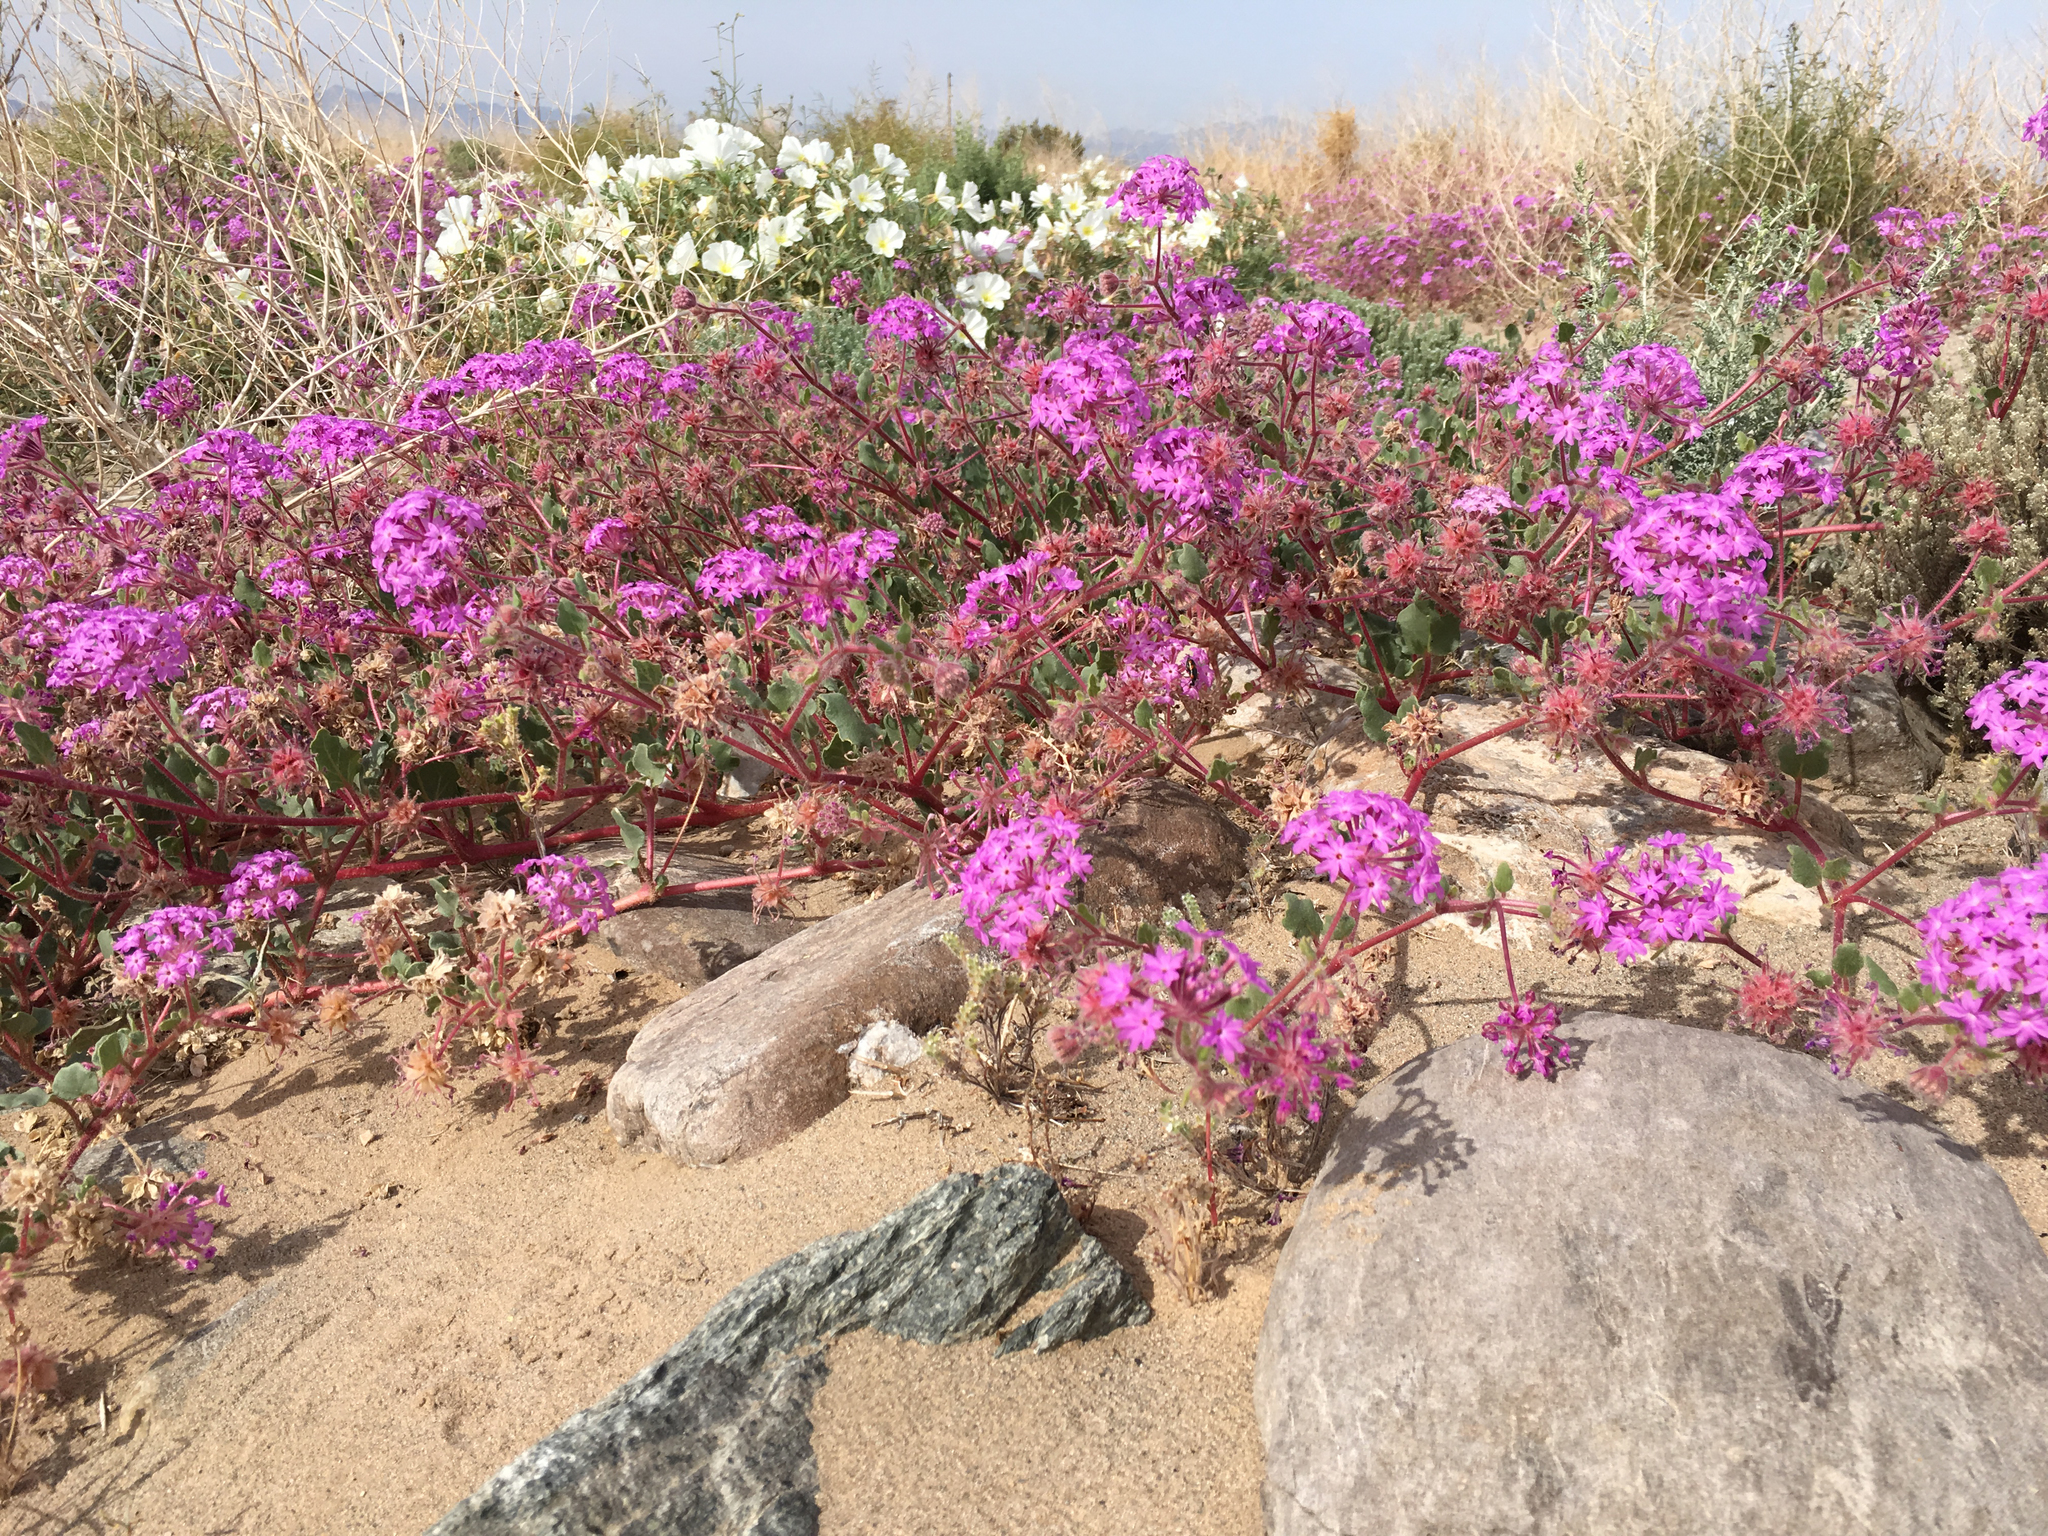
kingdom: Plantae
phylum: Tracheophyta
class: Magnoliopsida
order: Caryophyllales
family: Nyctaginaceae
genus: Abronia
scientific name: Abronia villosa
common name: Desert sand-verbena
